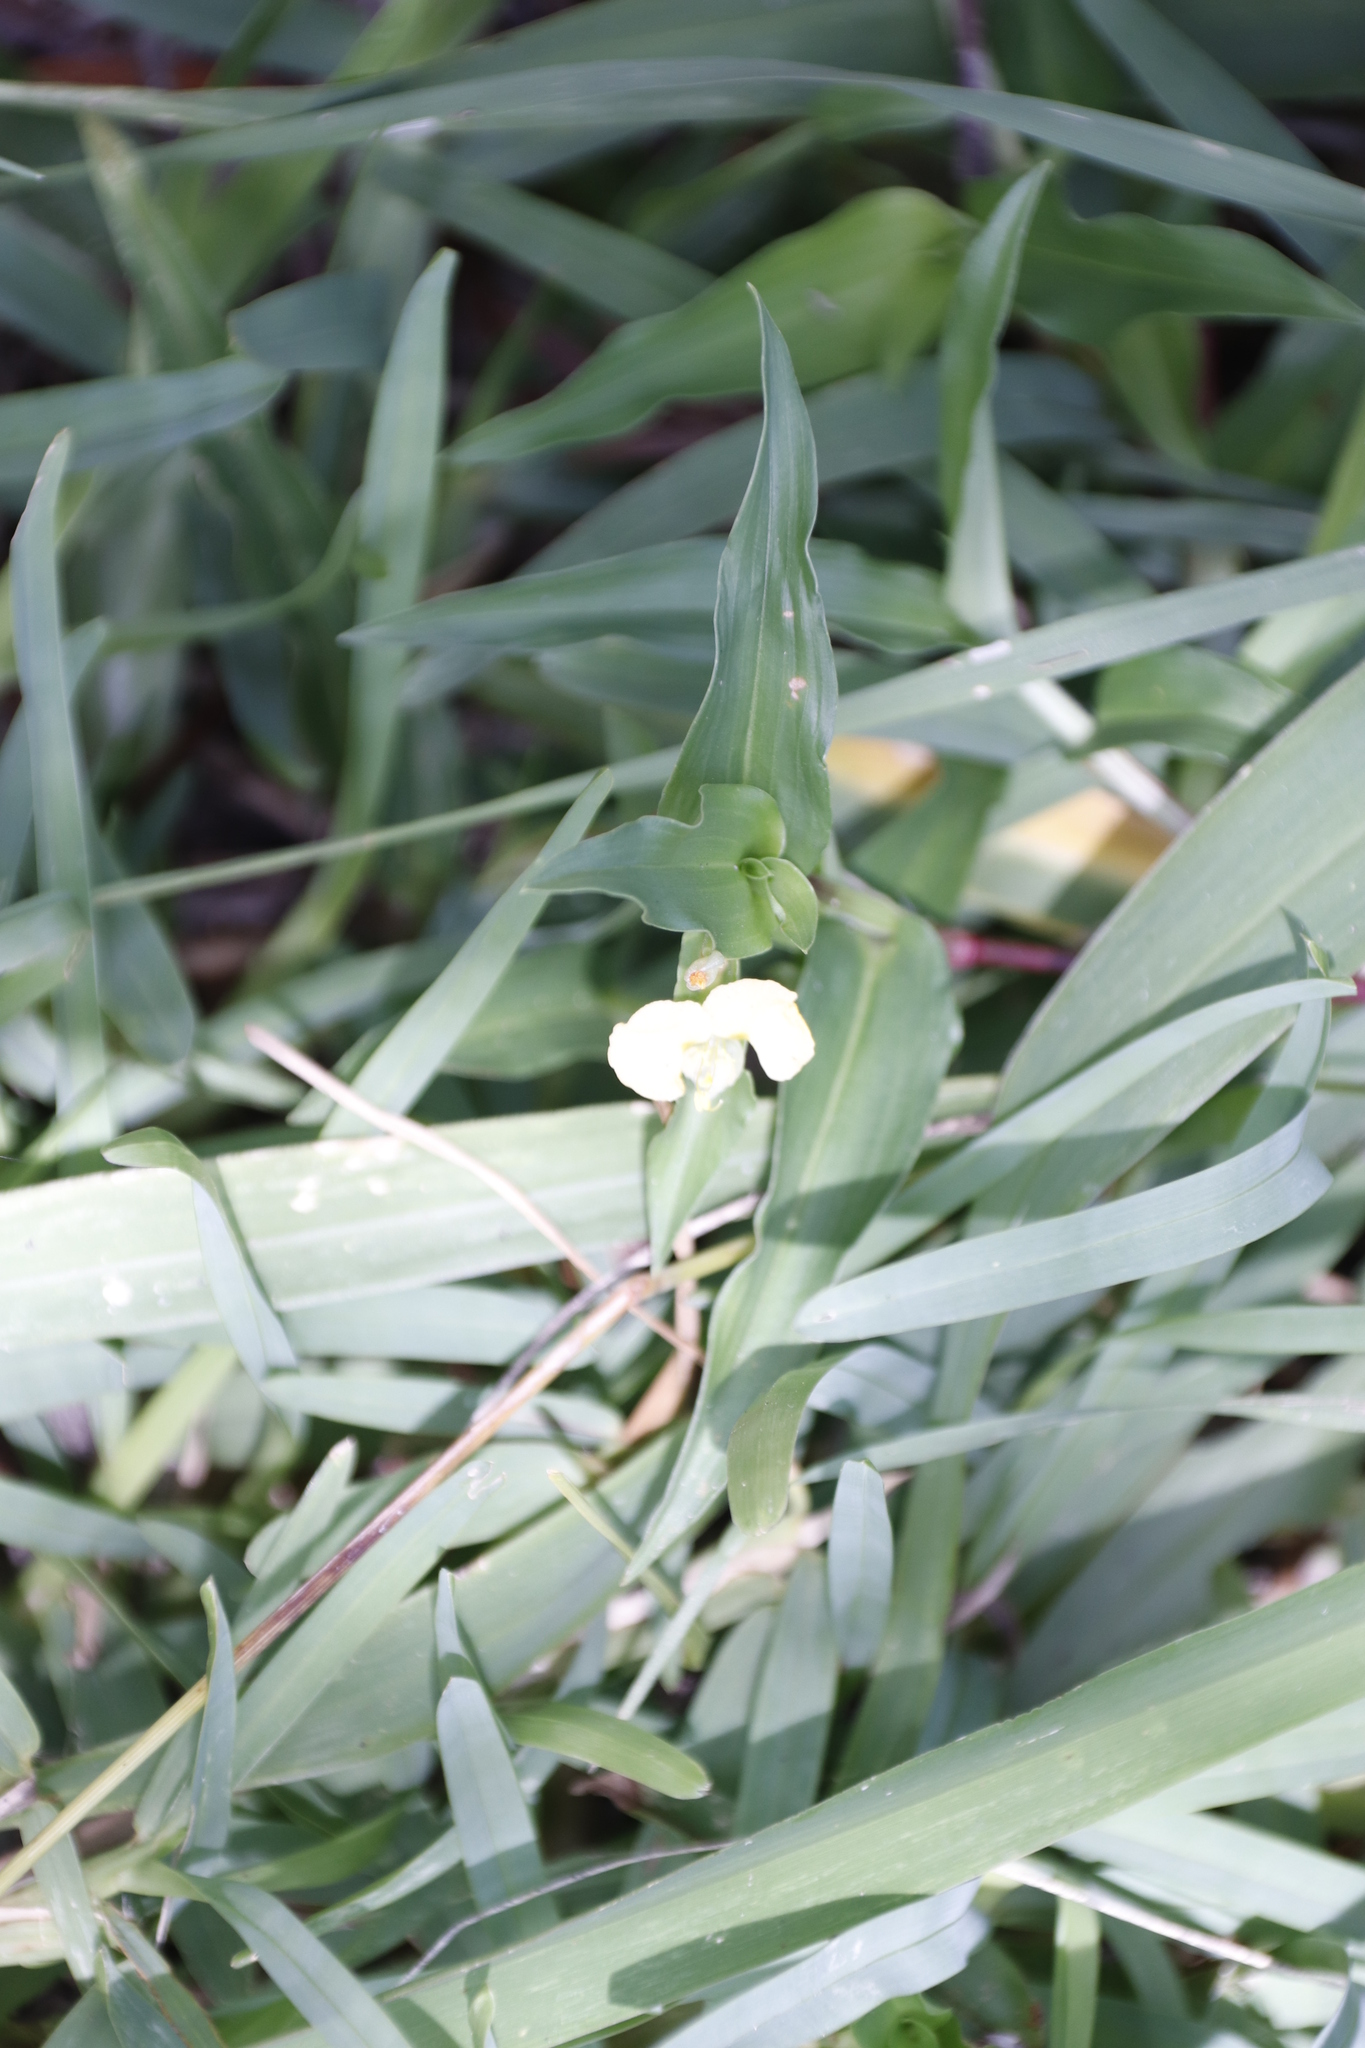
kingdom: Plantae
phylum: Tracheophyta
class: Liliopsida
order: Commelinales
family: Commelinaceae
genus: Commelina
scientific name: Commelina africana
